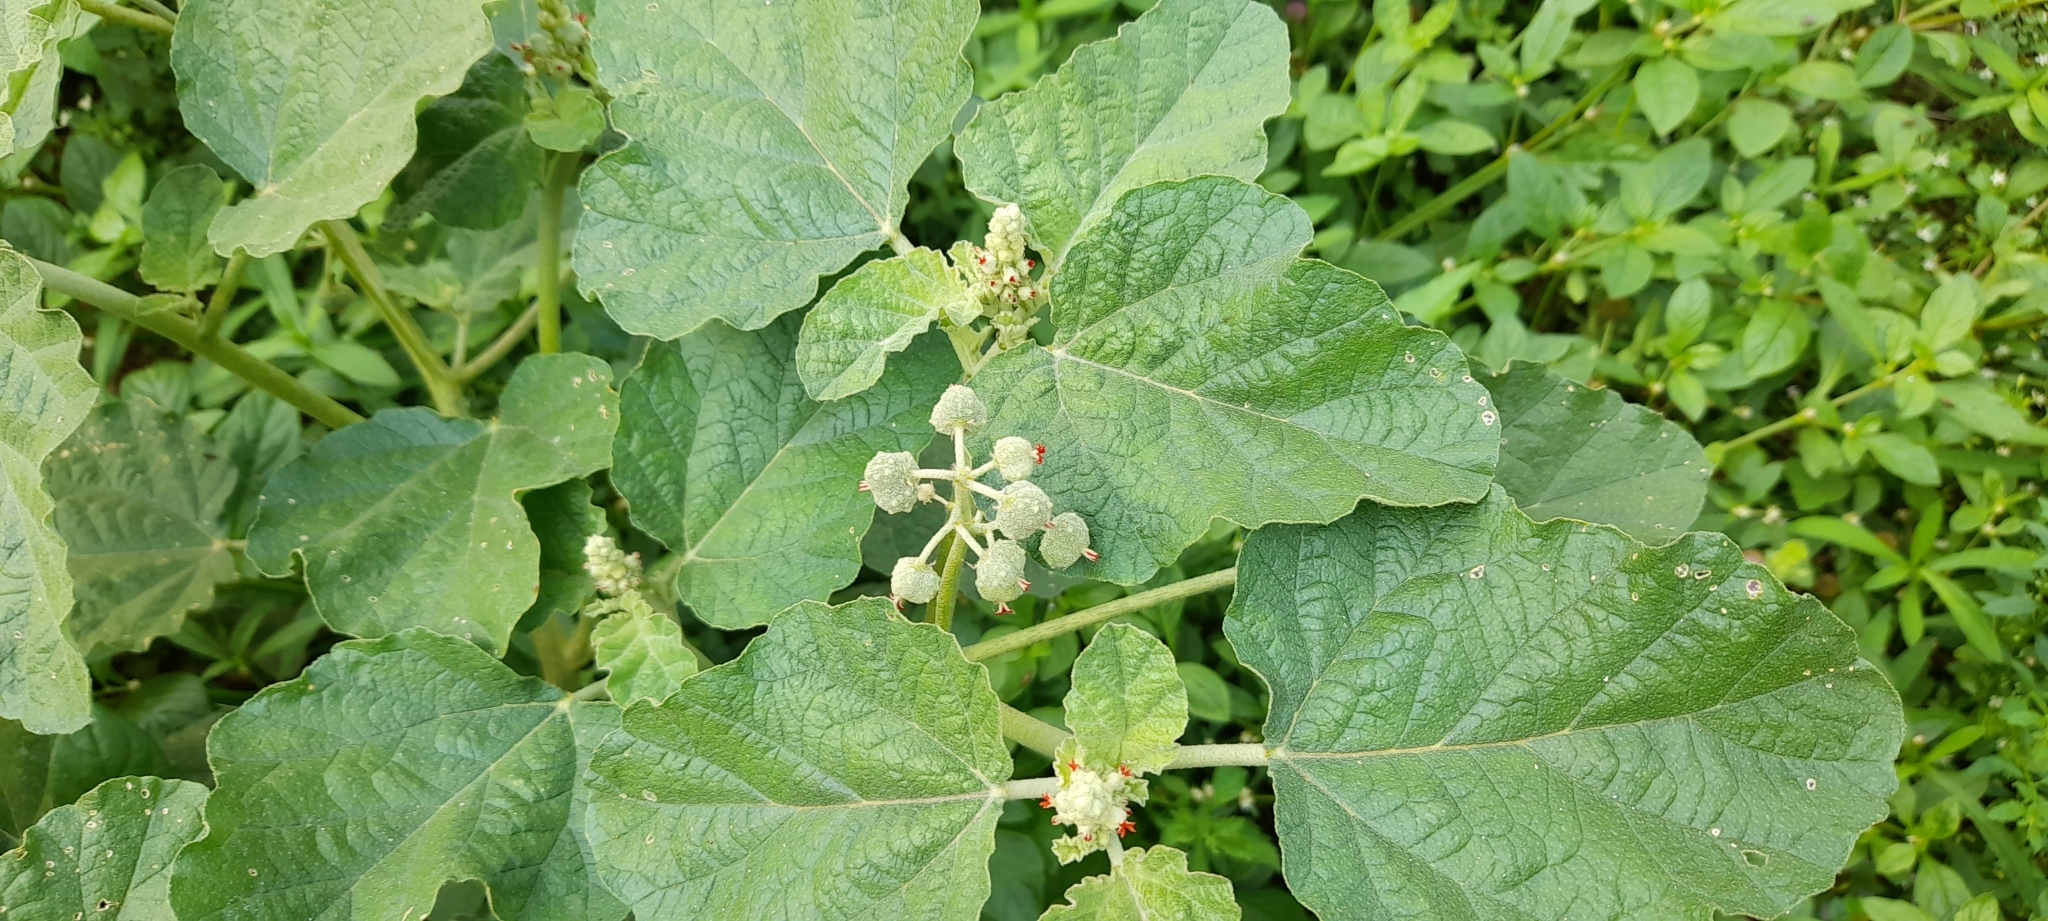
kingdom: Plantae
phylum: Tracheophyta
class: Magnoliopsida
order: Malpighiales
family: Euphorbiaceae
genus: Chrozophora
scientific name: Chrozophora rottleri
